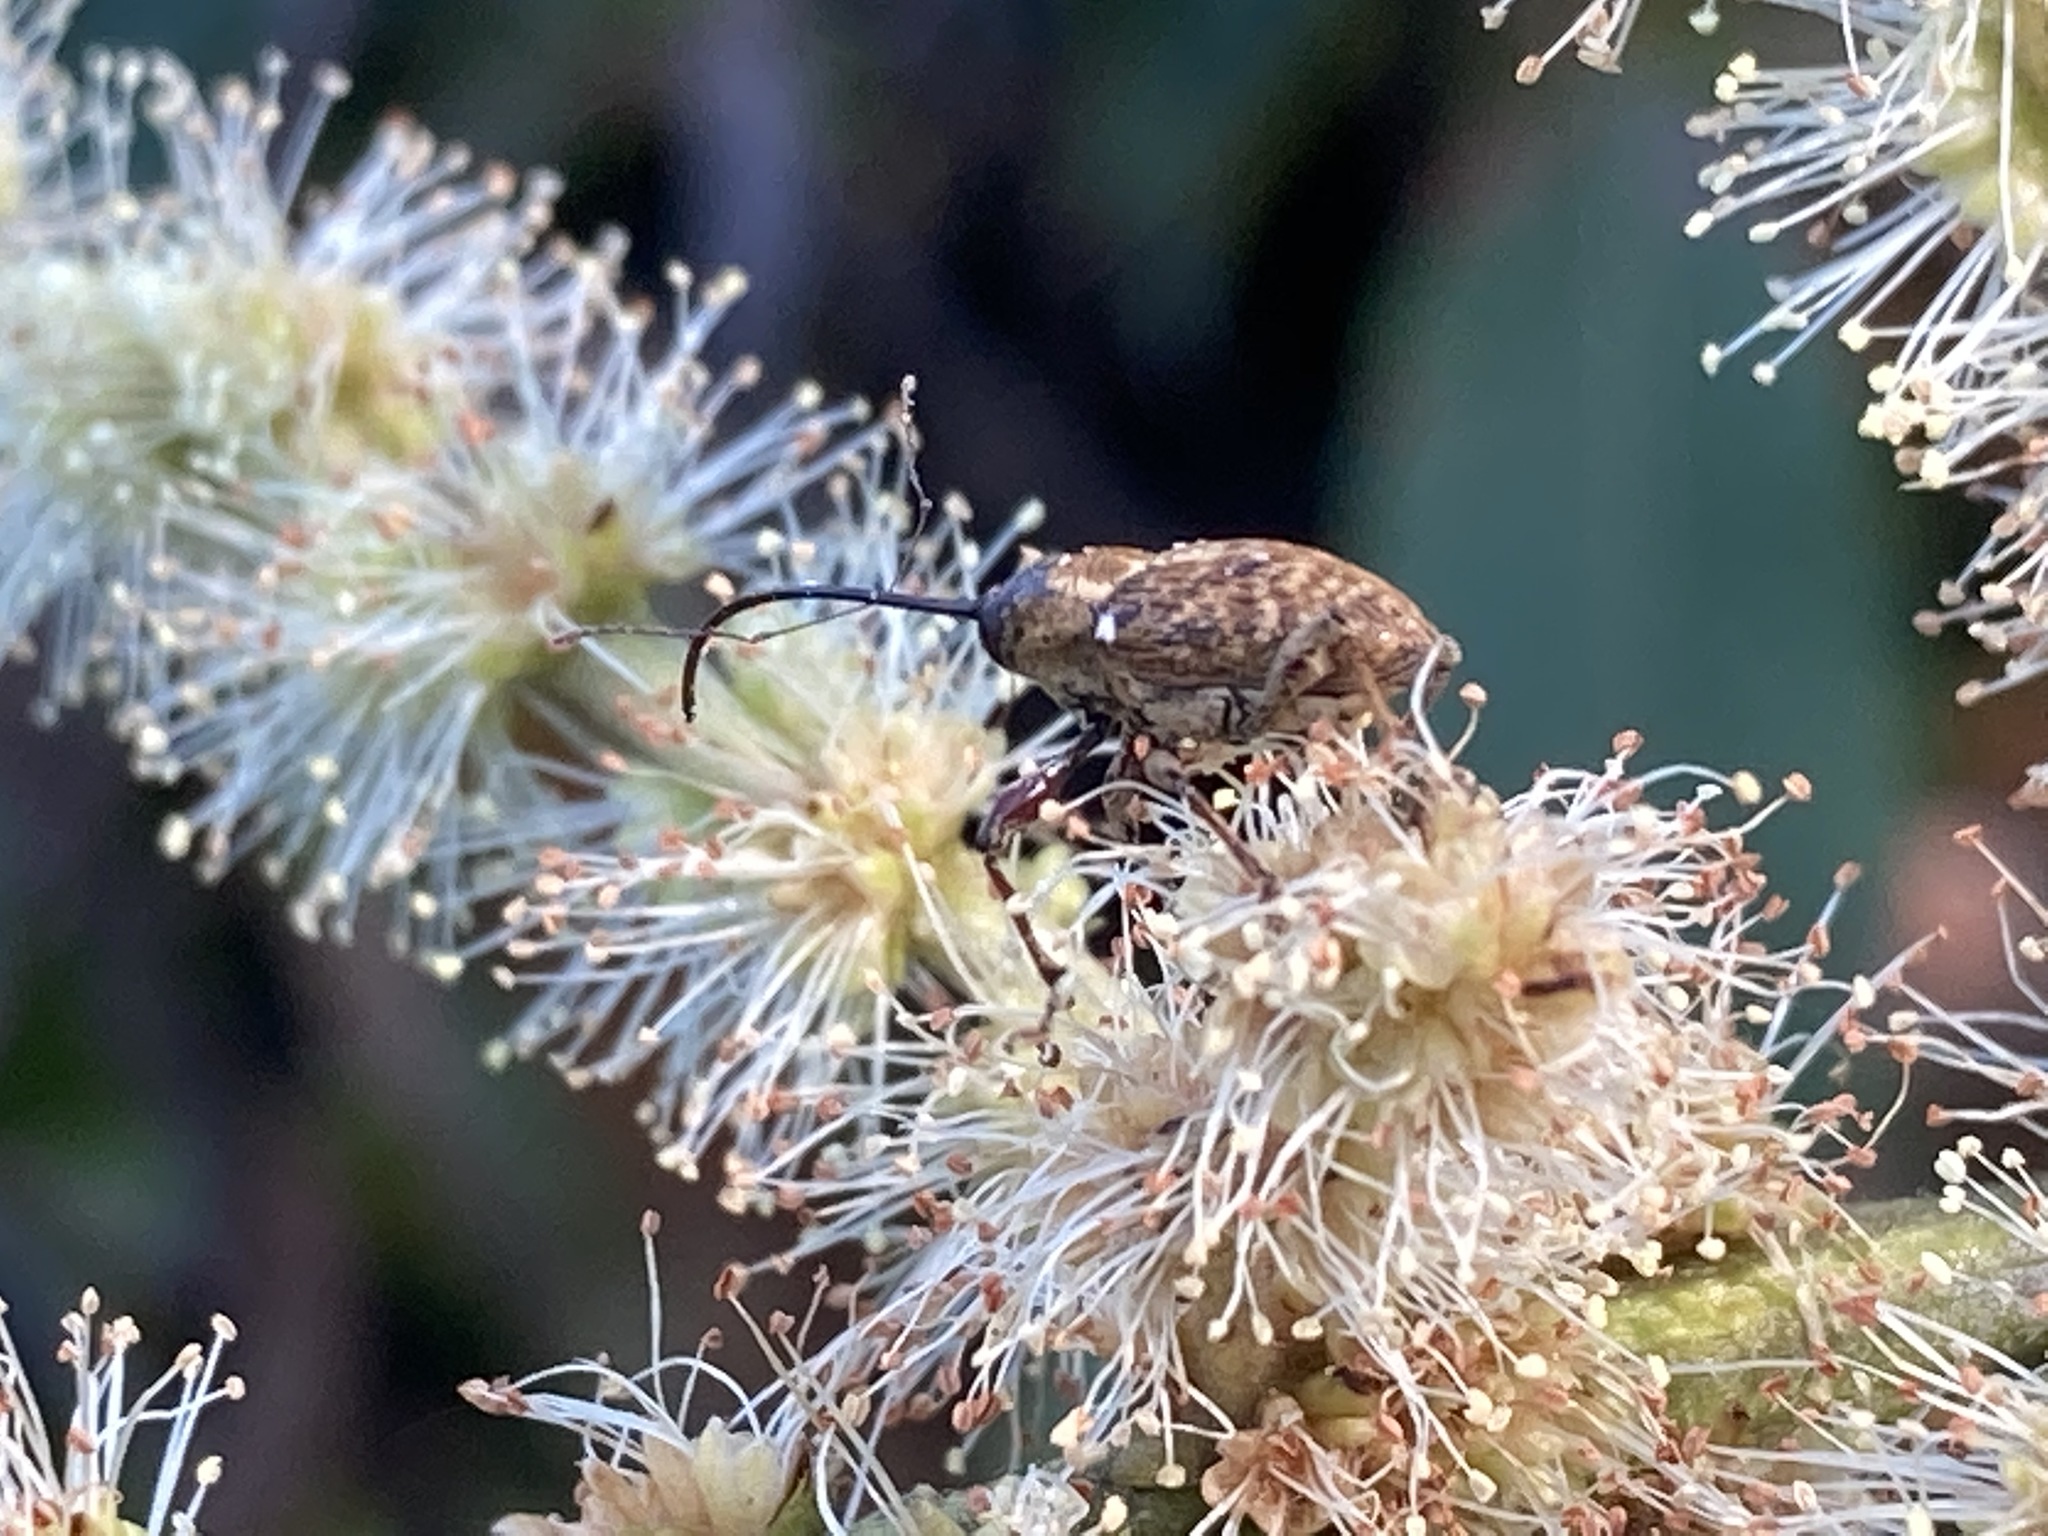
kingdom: Animalia
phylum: Arthropoda
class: Insecta
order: Coleoptera
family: Curculionidae
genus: Curculio
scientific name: Curculio sayi
